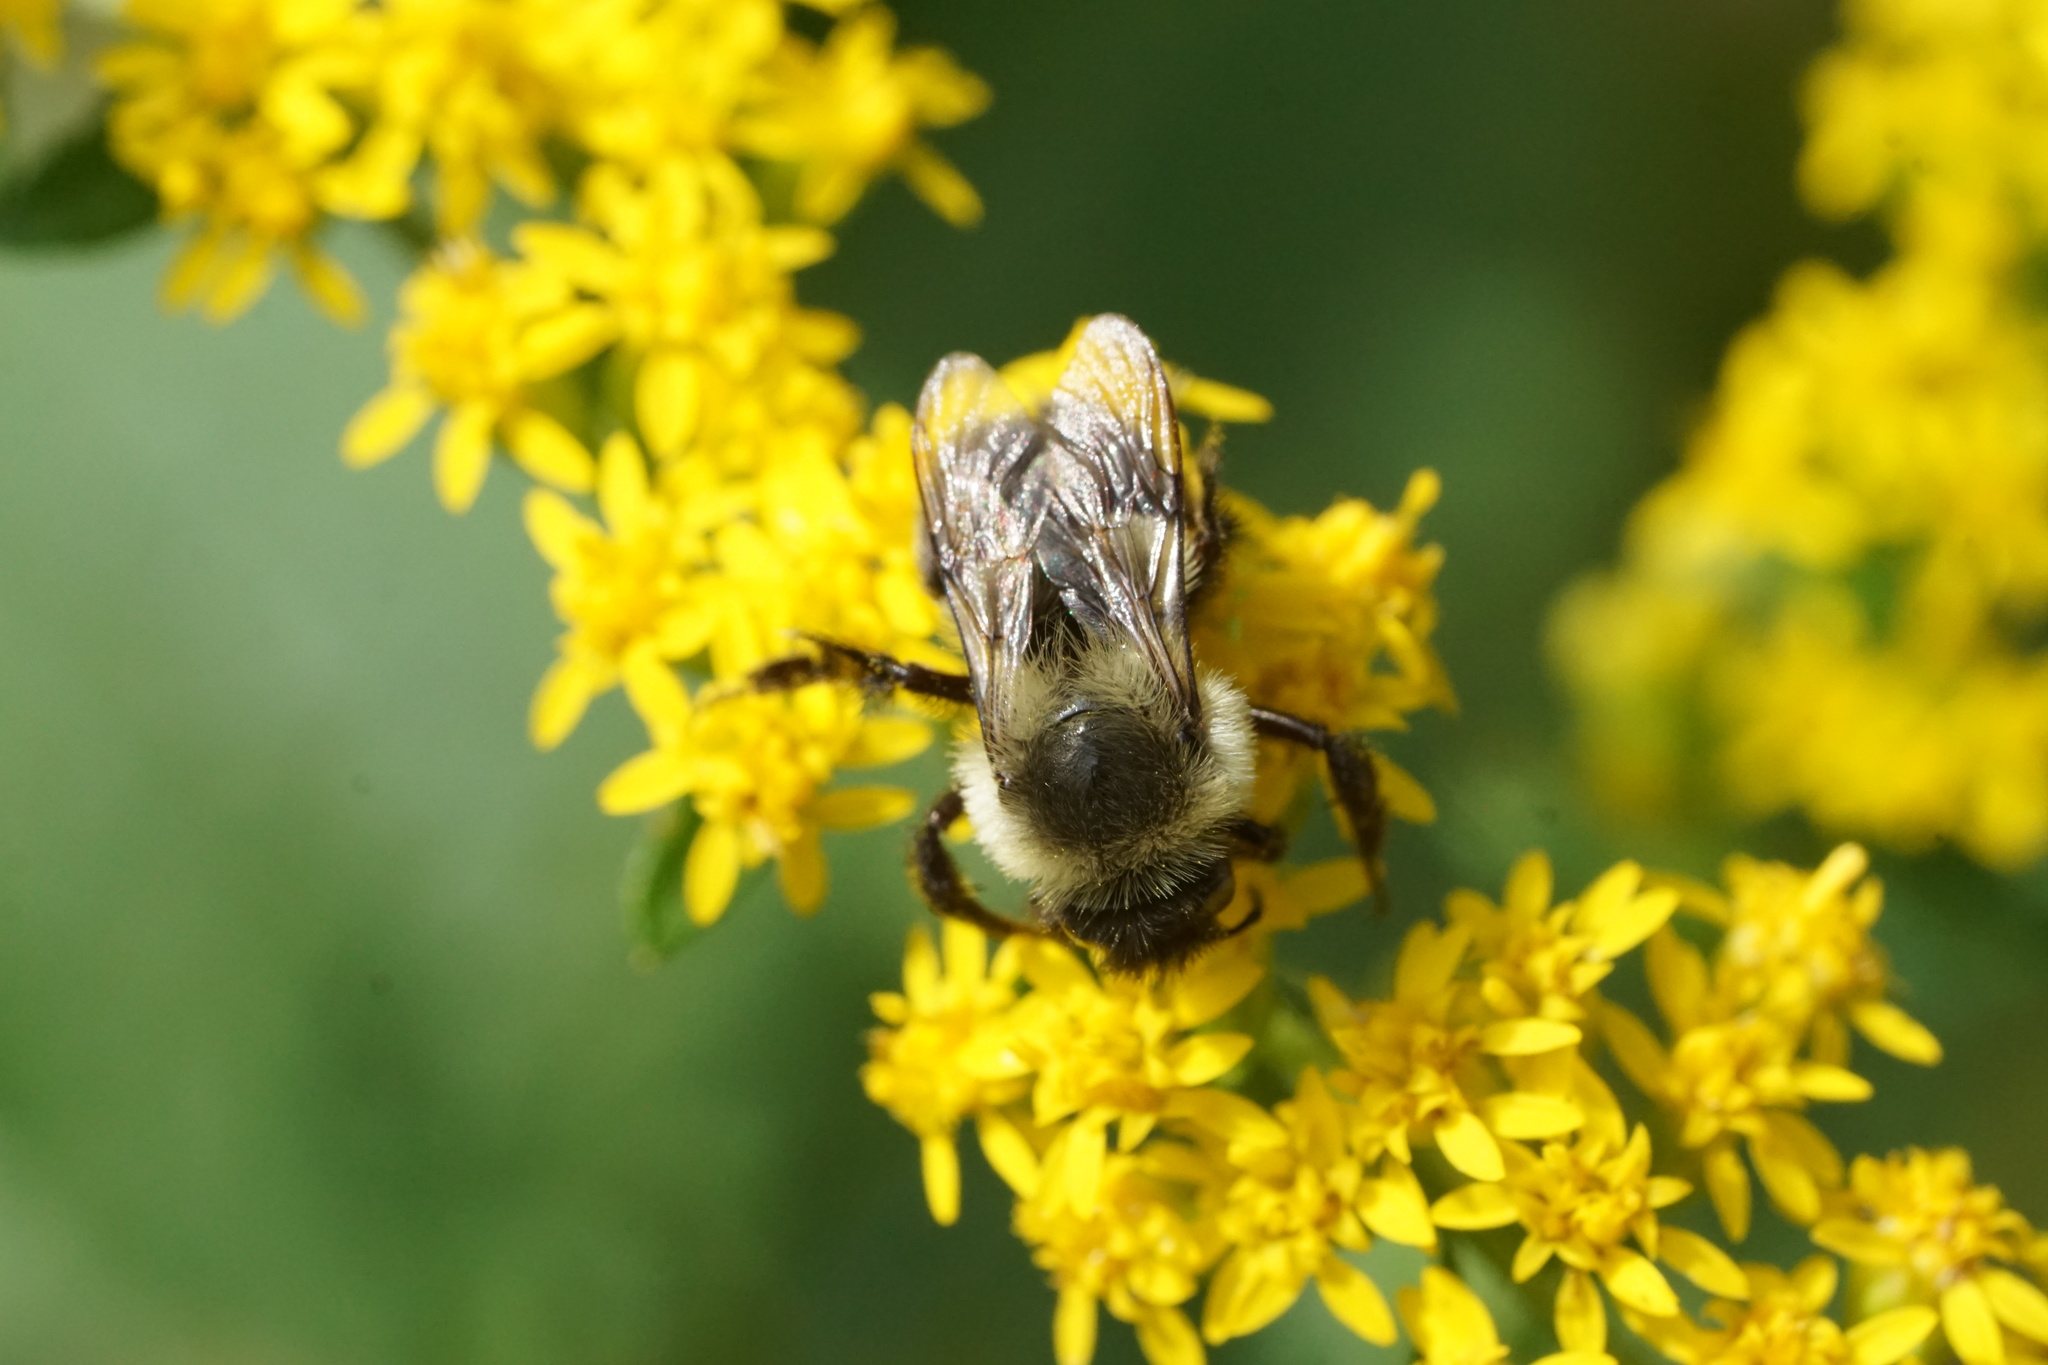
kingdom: Animalia
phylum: Arthropoda
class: Insecta
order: Hymenoptera
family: Apidae
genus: Bombus
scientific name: Bombus impatiens
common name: Common eastern bumble bee
